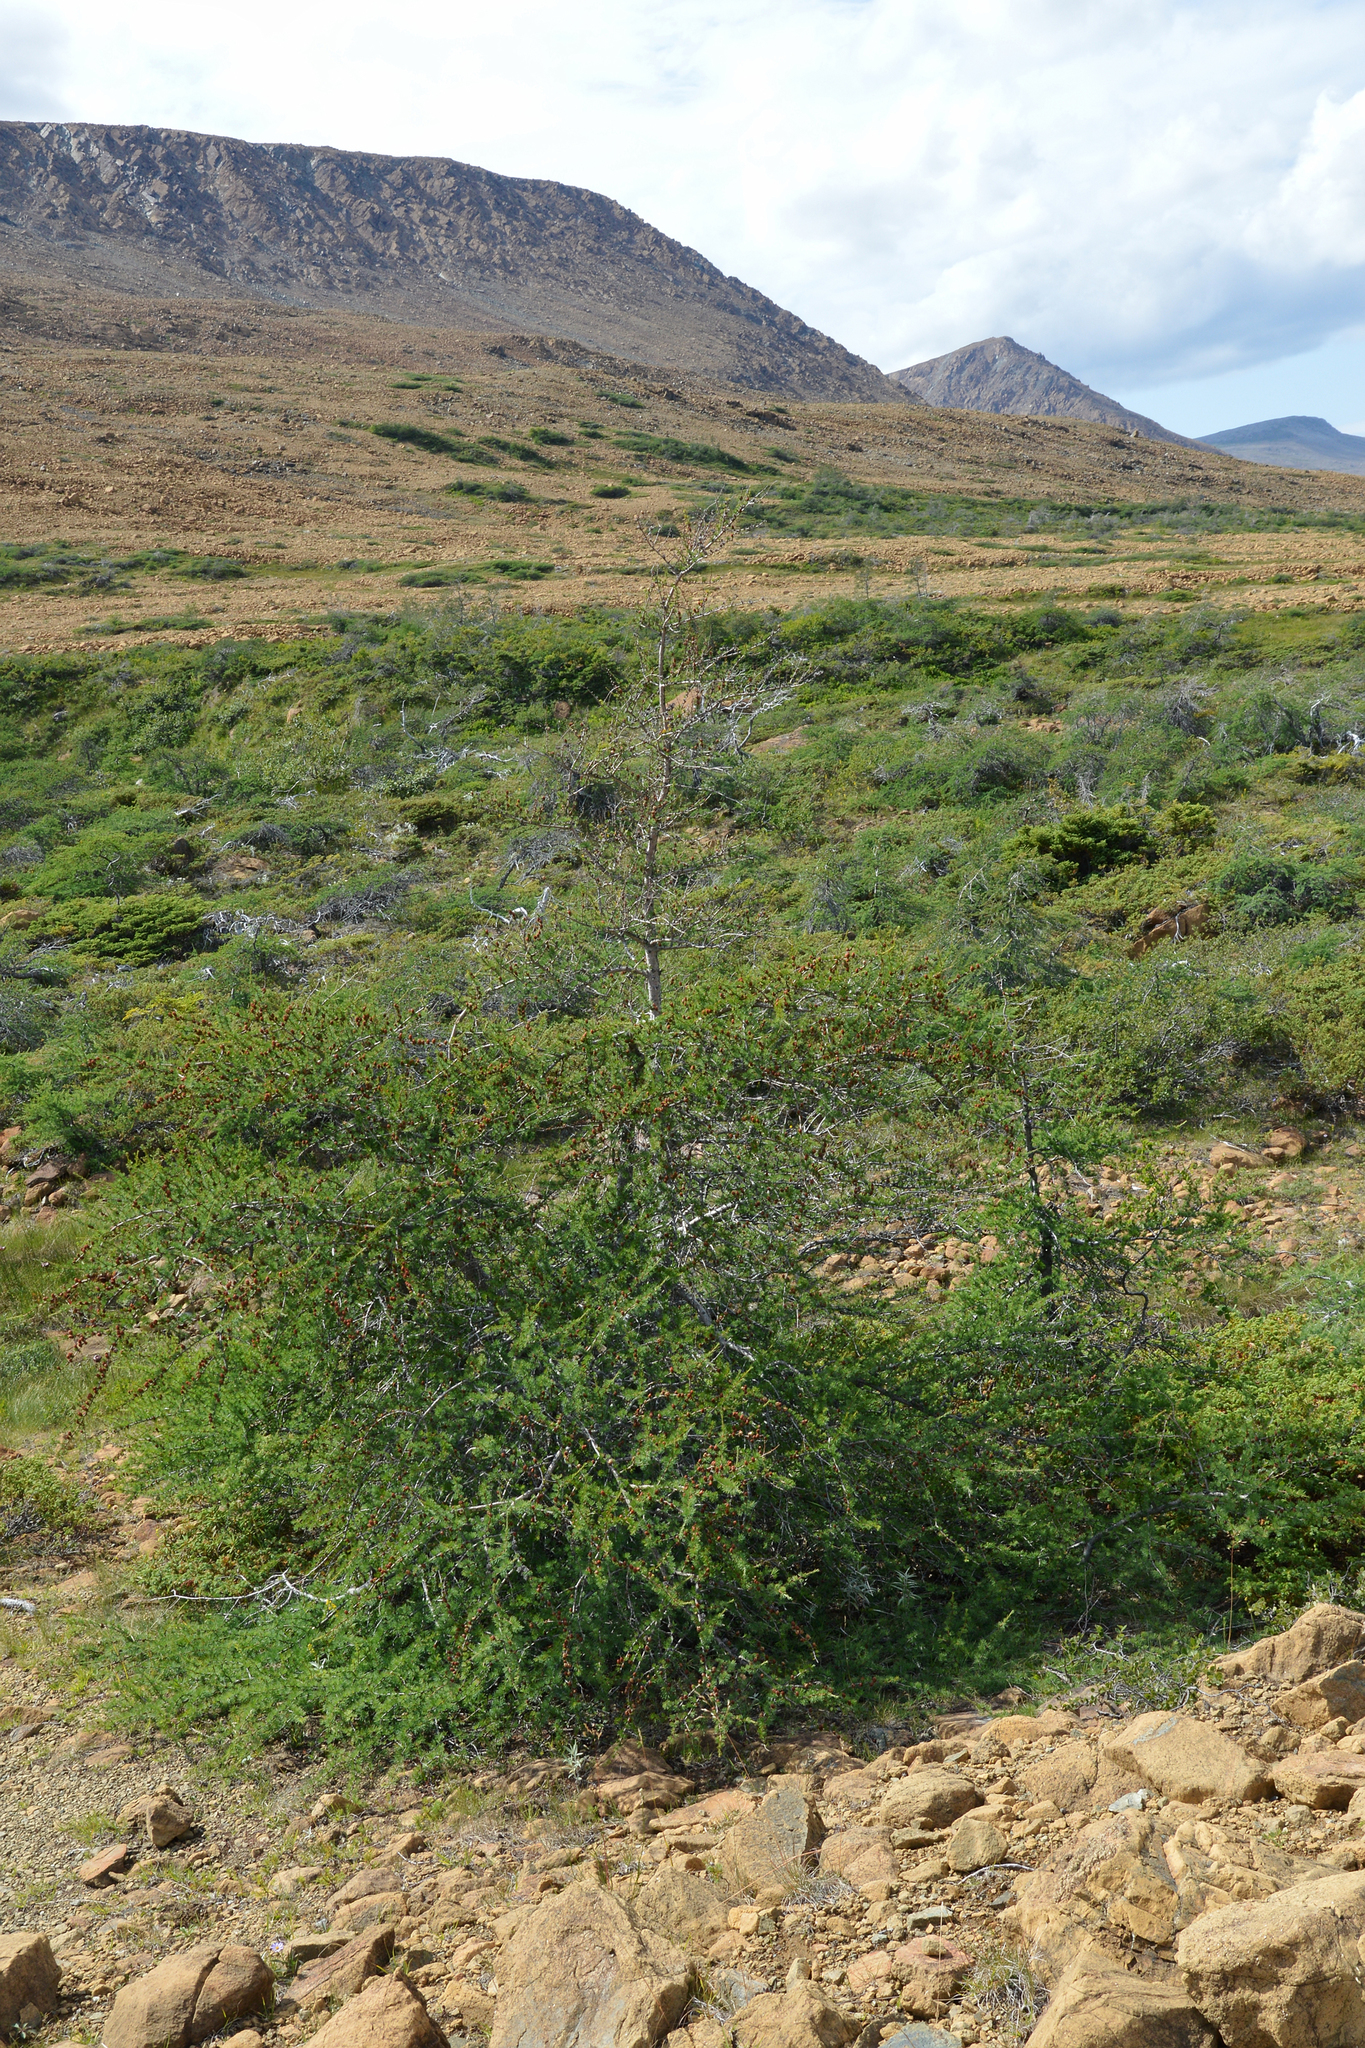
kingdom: Plantae
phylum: Tracheophyta
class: Pinopsida
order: Pinales
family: Pinaceae
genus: Larix
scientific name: Larix laricina
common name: American larch
